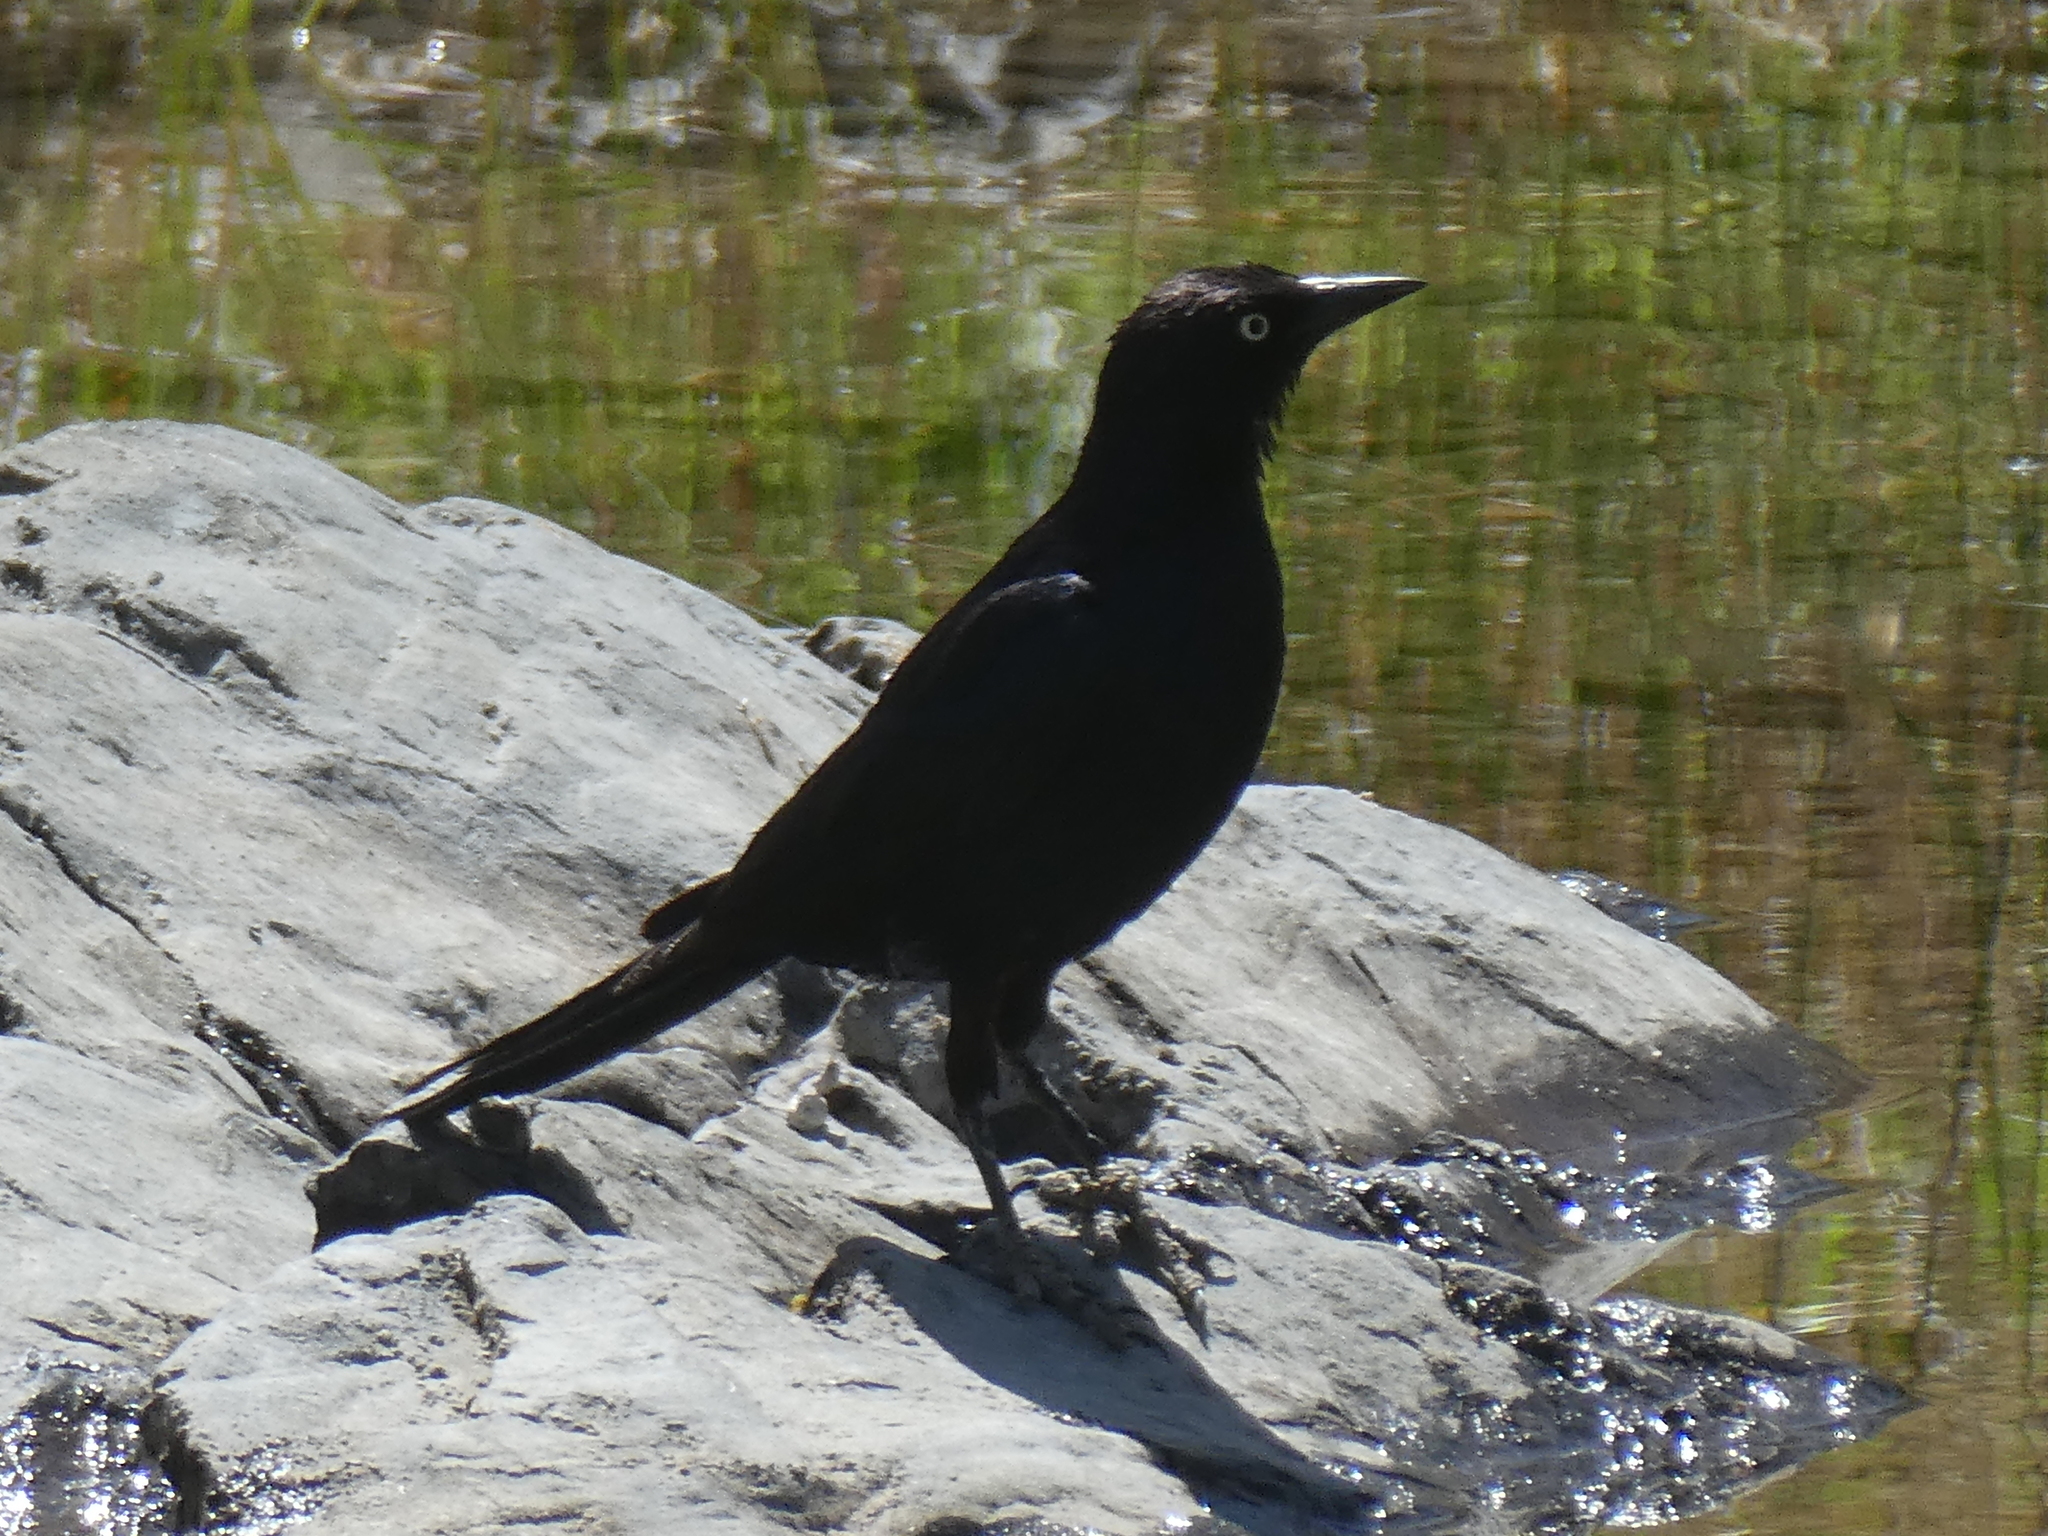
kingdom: Animalia
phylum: Chordata
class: Aves
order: Passeriformes
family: Icteridae
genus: Euphagus
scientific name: Euphagus cyanocephalus
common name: Brewer's blackbird
